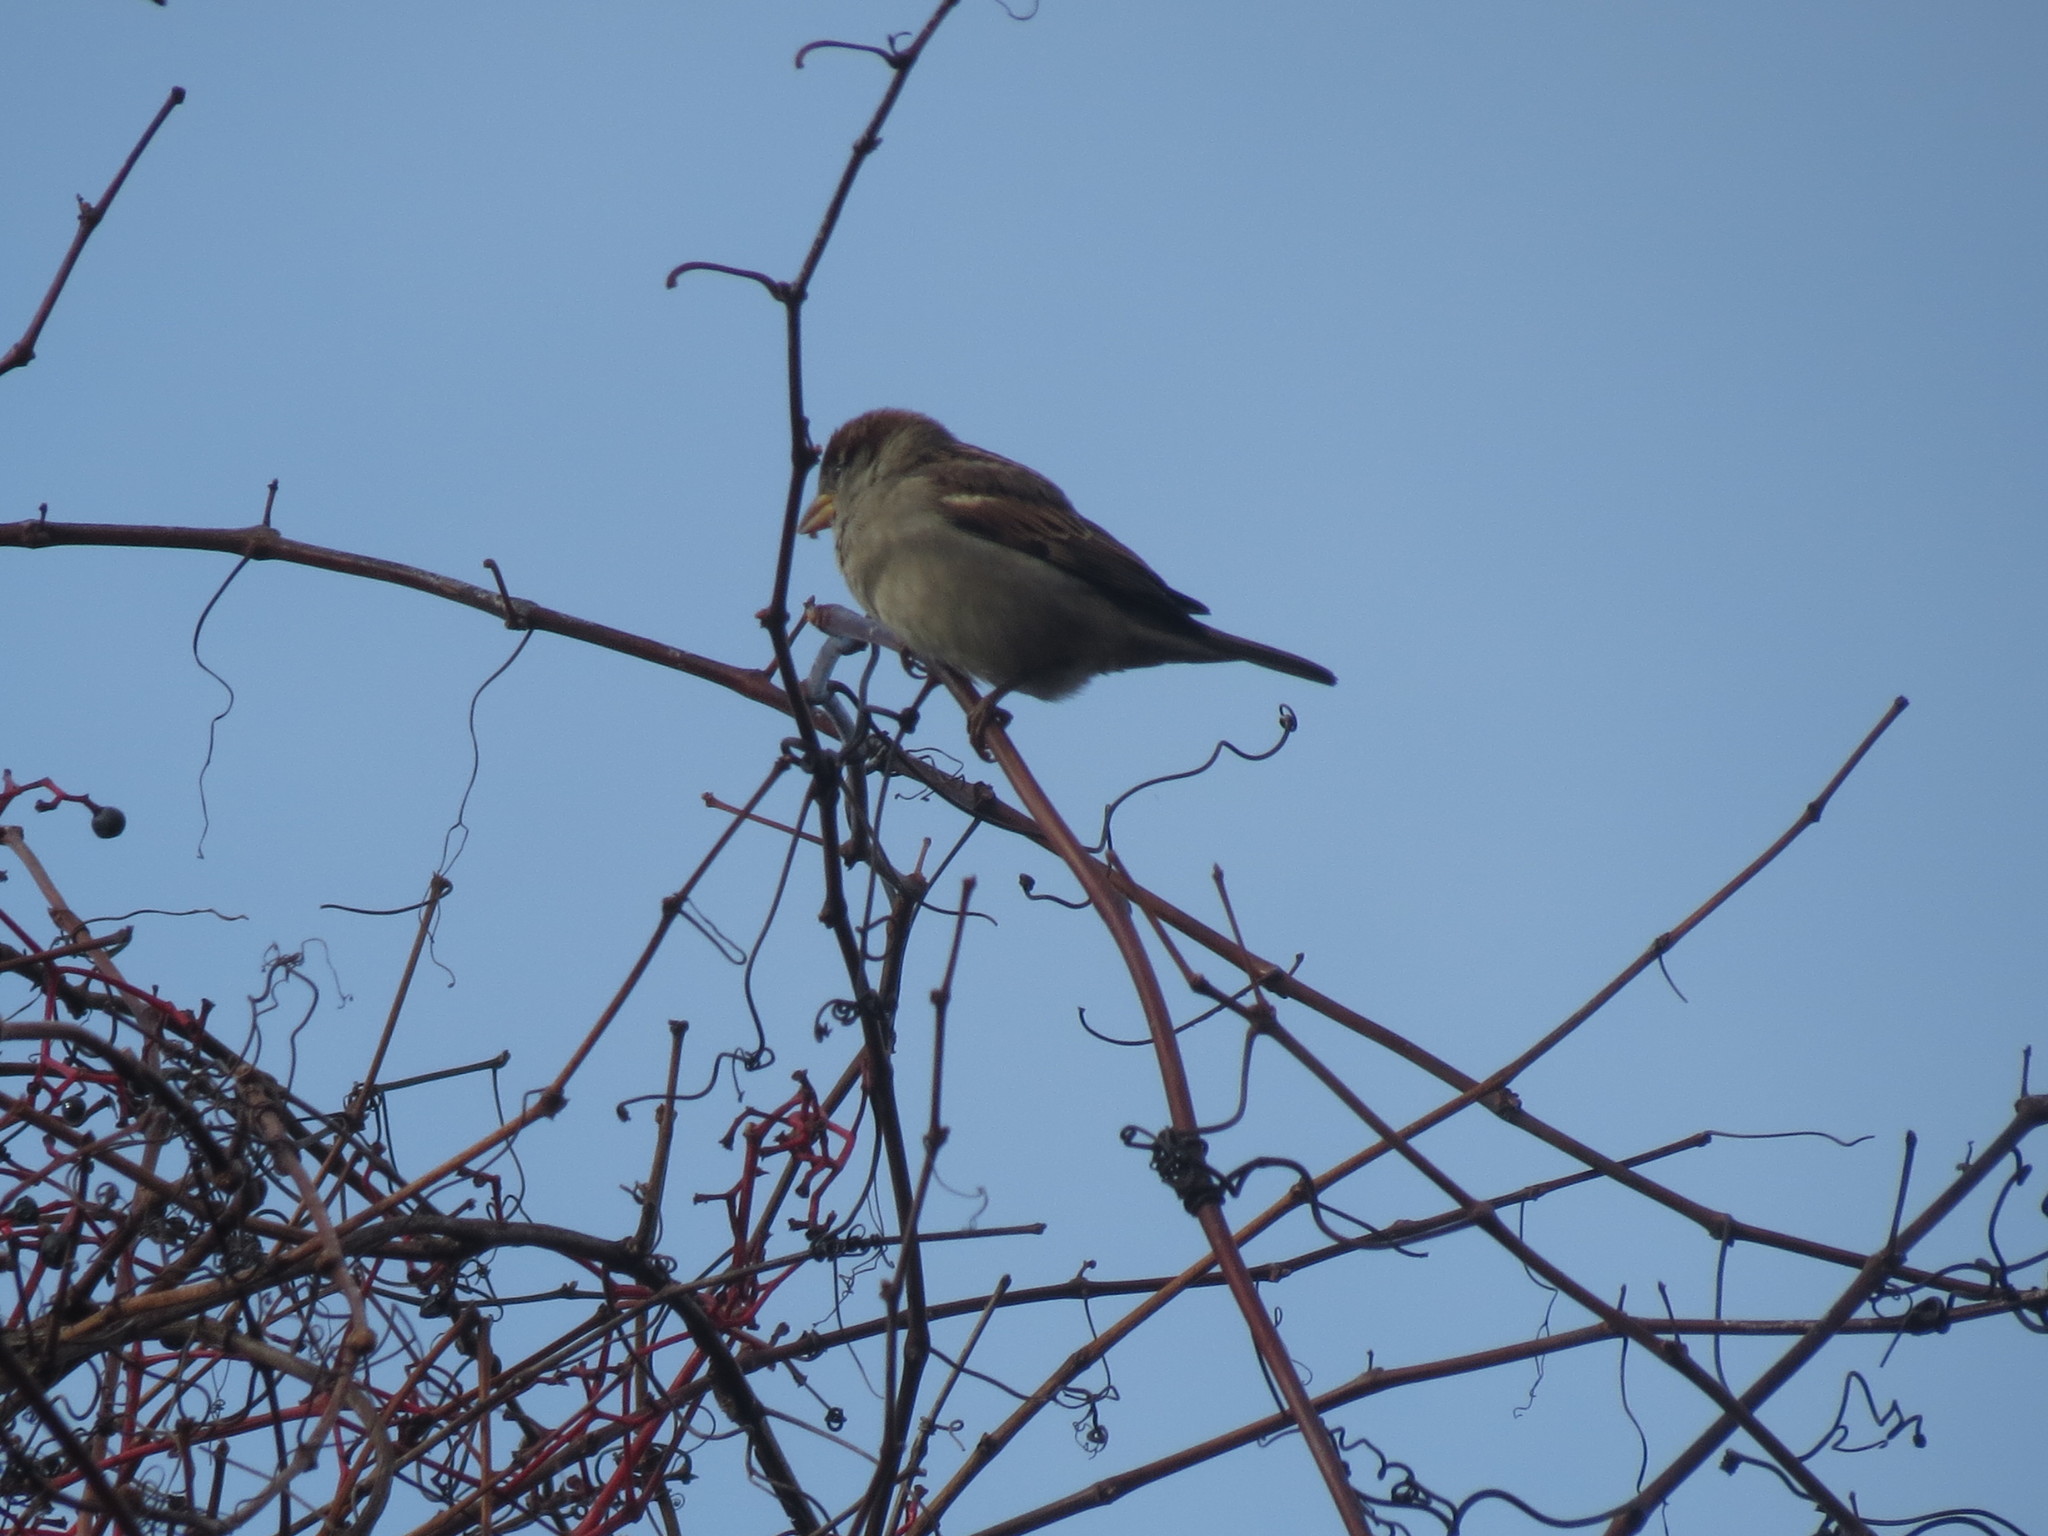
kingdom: Animalia
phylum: Chordata
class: Aves
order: Passeriformes
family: Passeridae
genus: Passer
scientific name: Passer domesticus
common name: House sparrow
